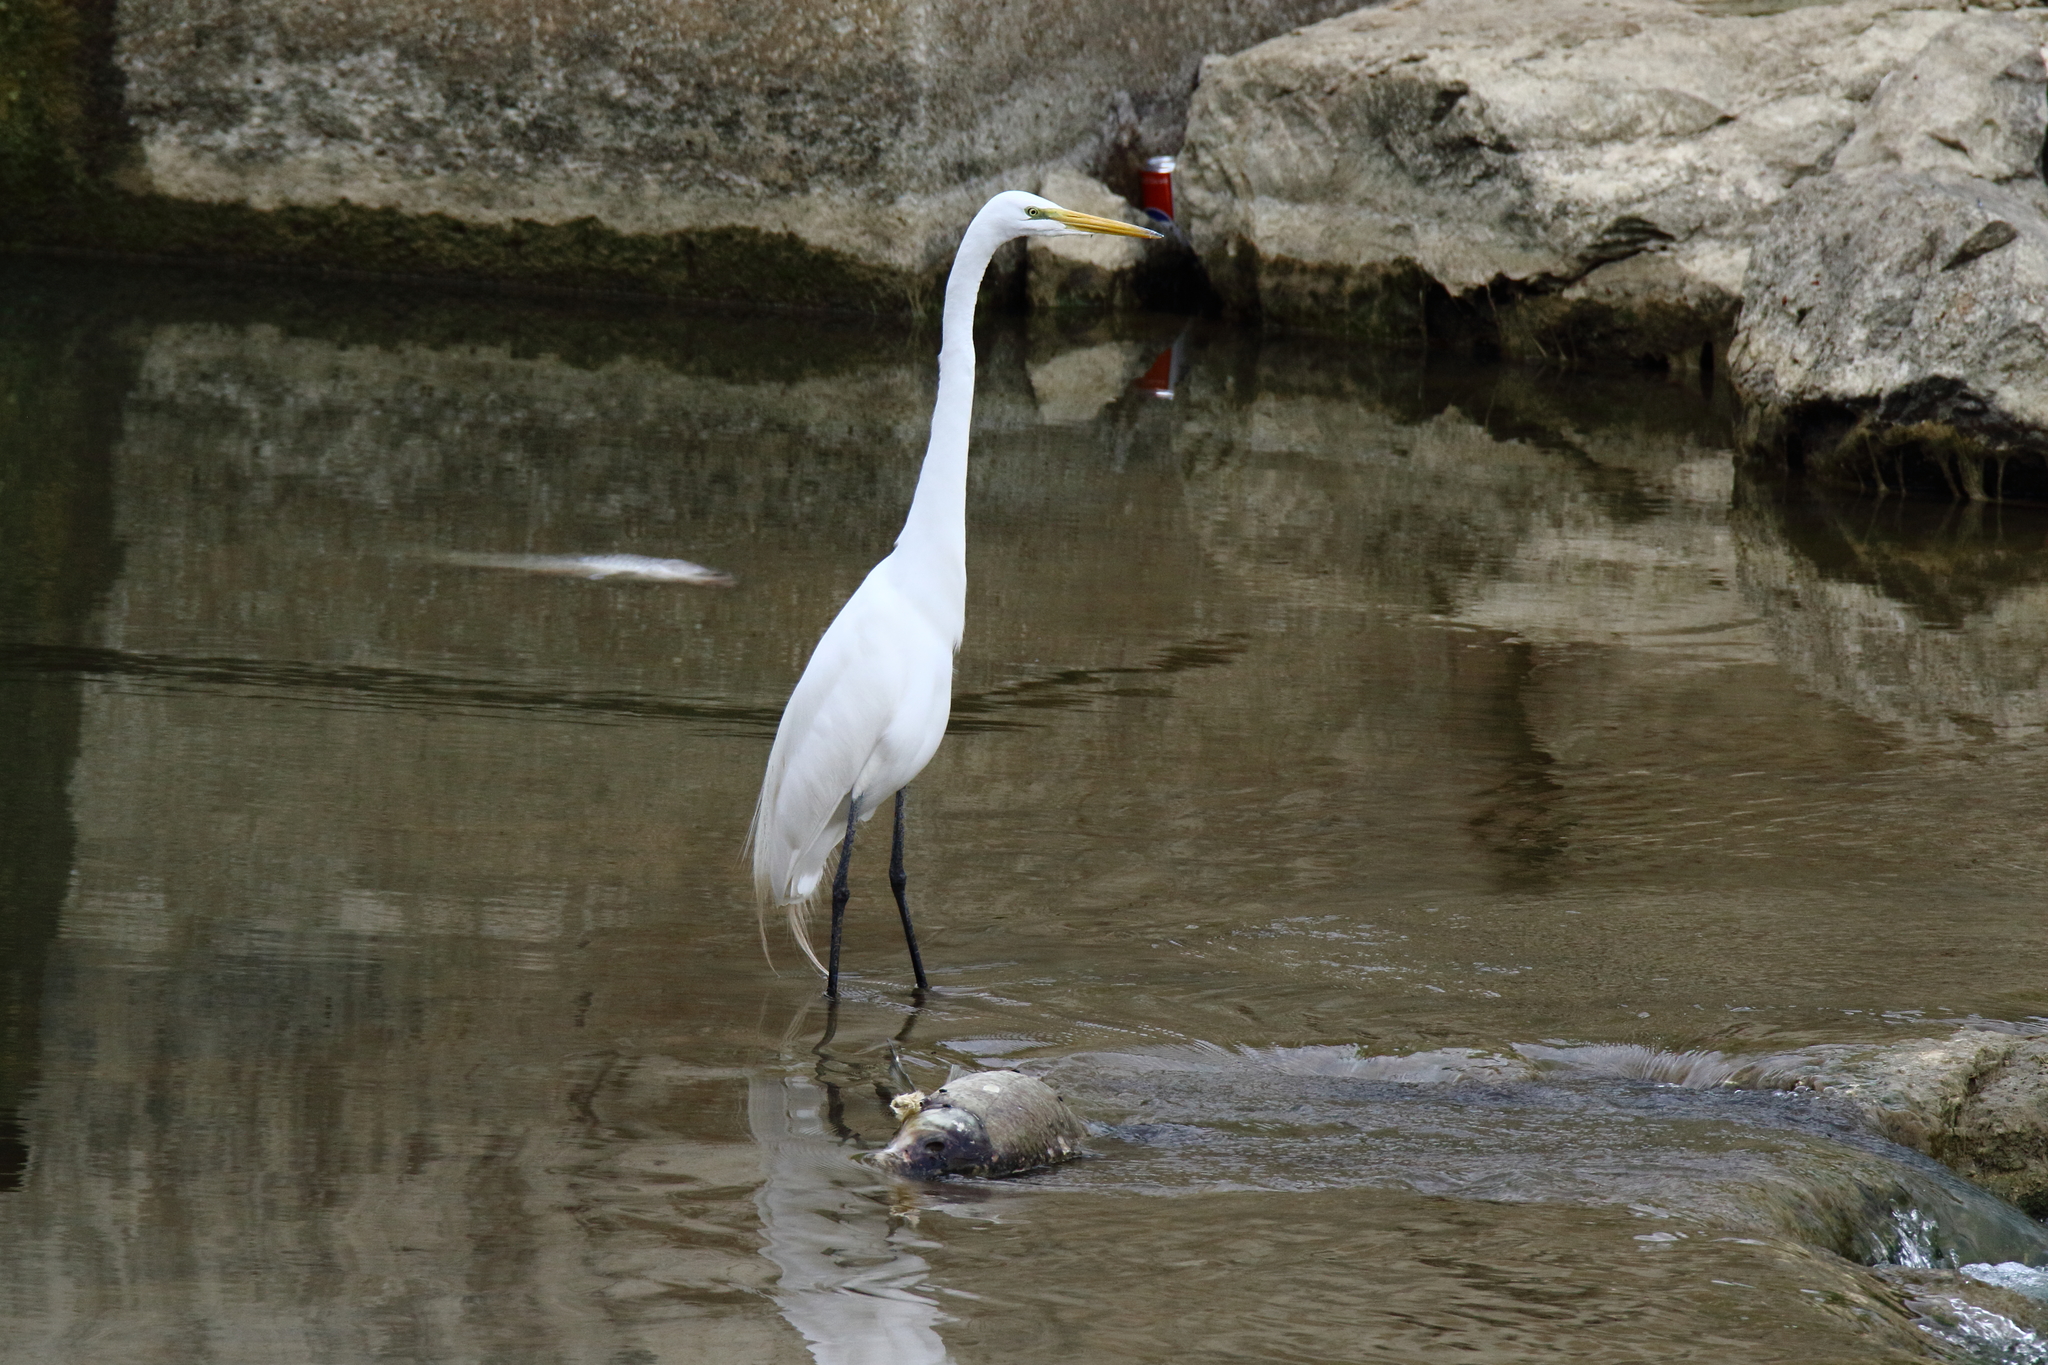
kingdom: Animalia
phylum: Chordata
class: Aves
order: Pelecaniformes
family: Ardeidae
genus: Ardea
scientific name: Ardea alba
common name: Great egret
